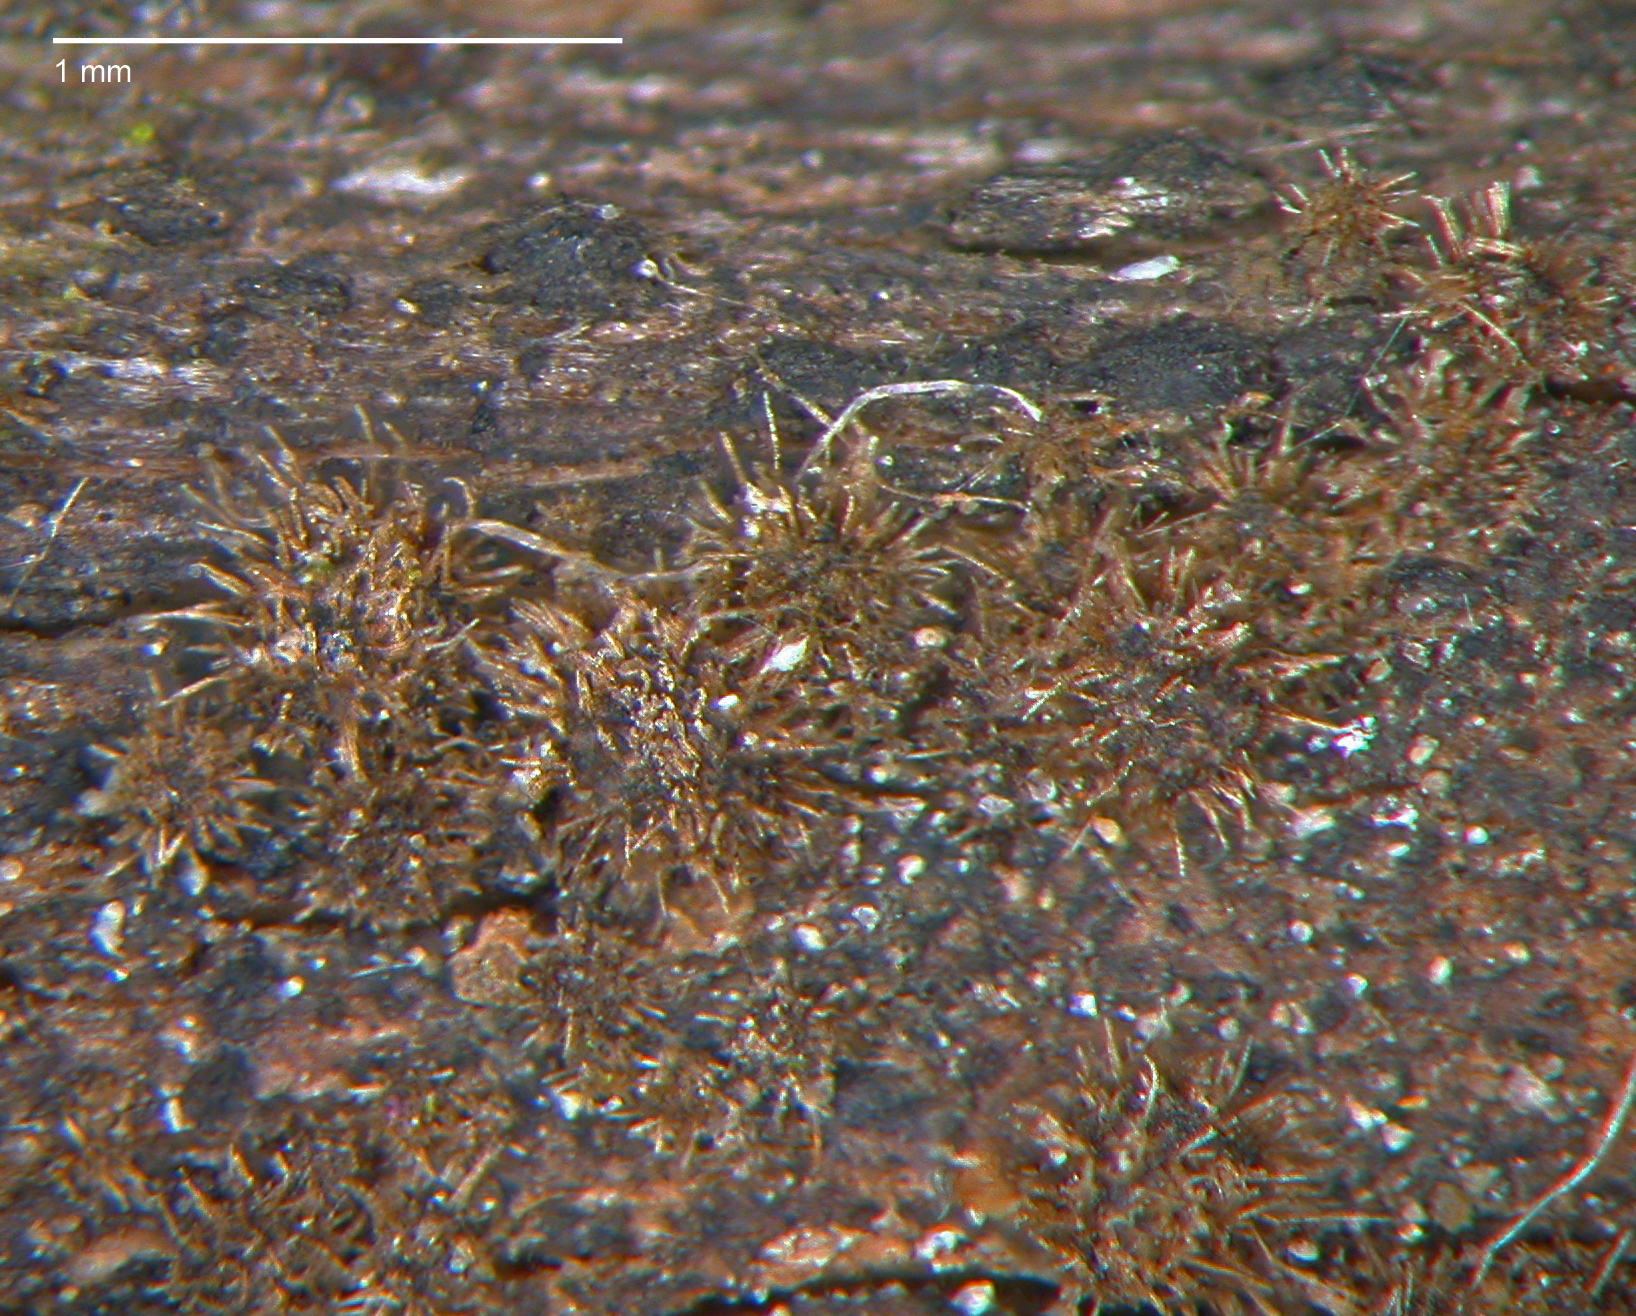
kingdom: Fungi
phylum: Ascomycota
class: Sordariomycetes
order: Sordariales
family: Helminthosphaeriaceae
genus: Echinosphaeria
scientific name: Echinosphaeria strigosa
